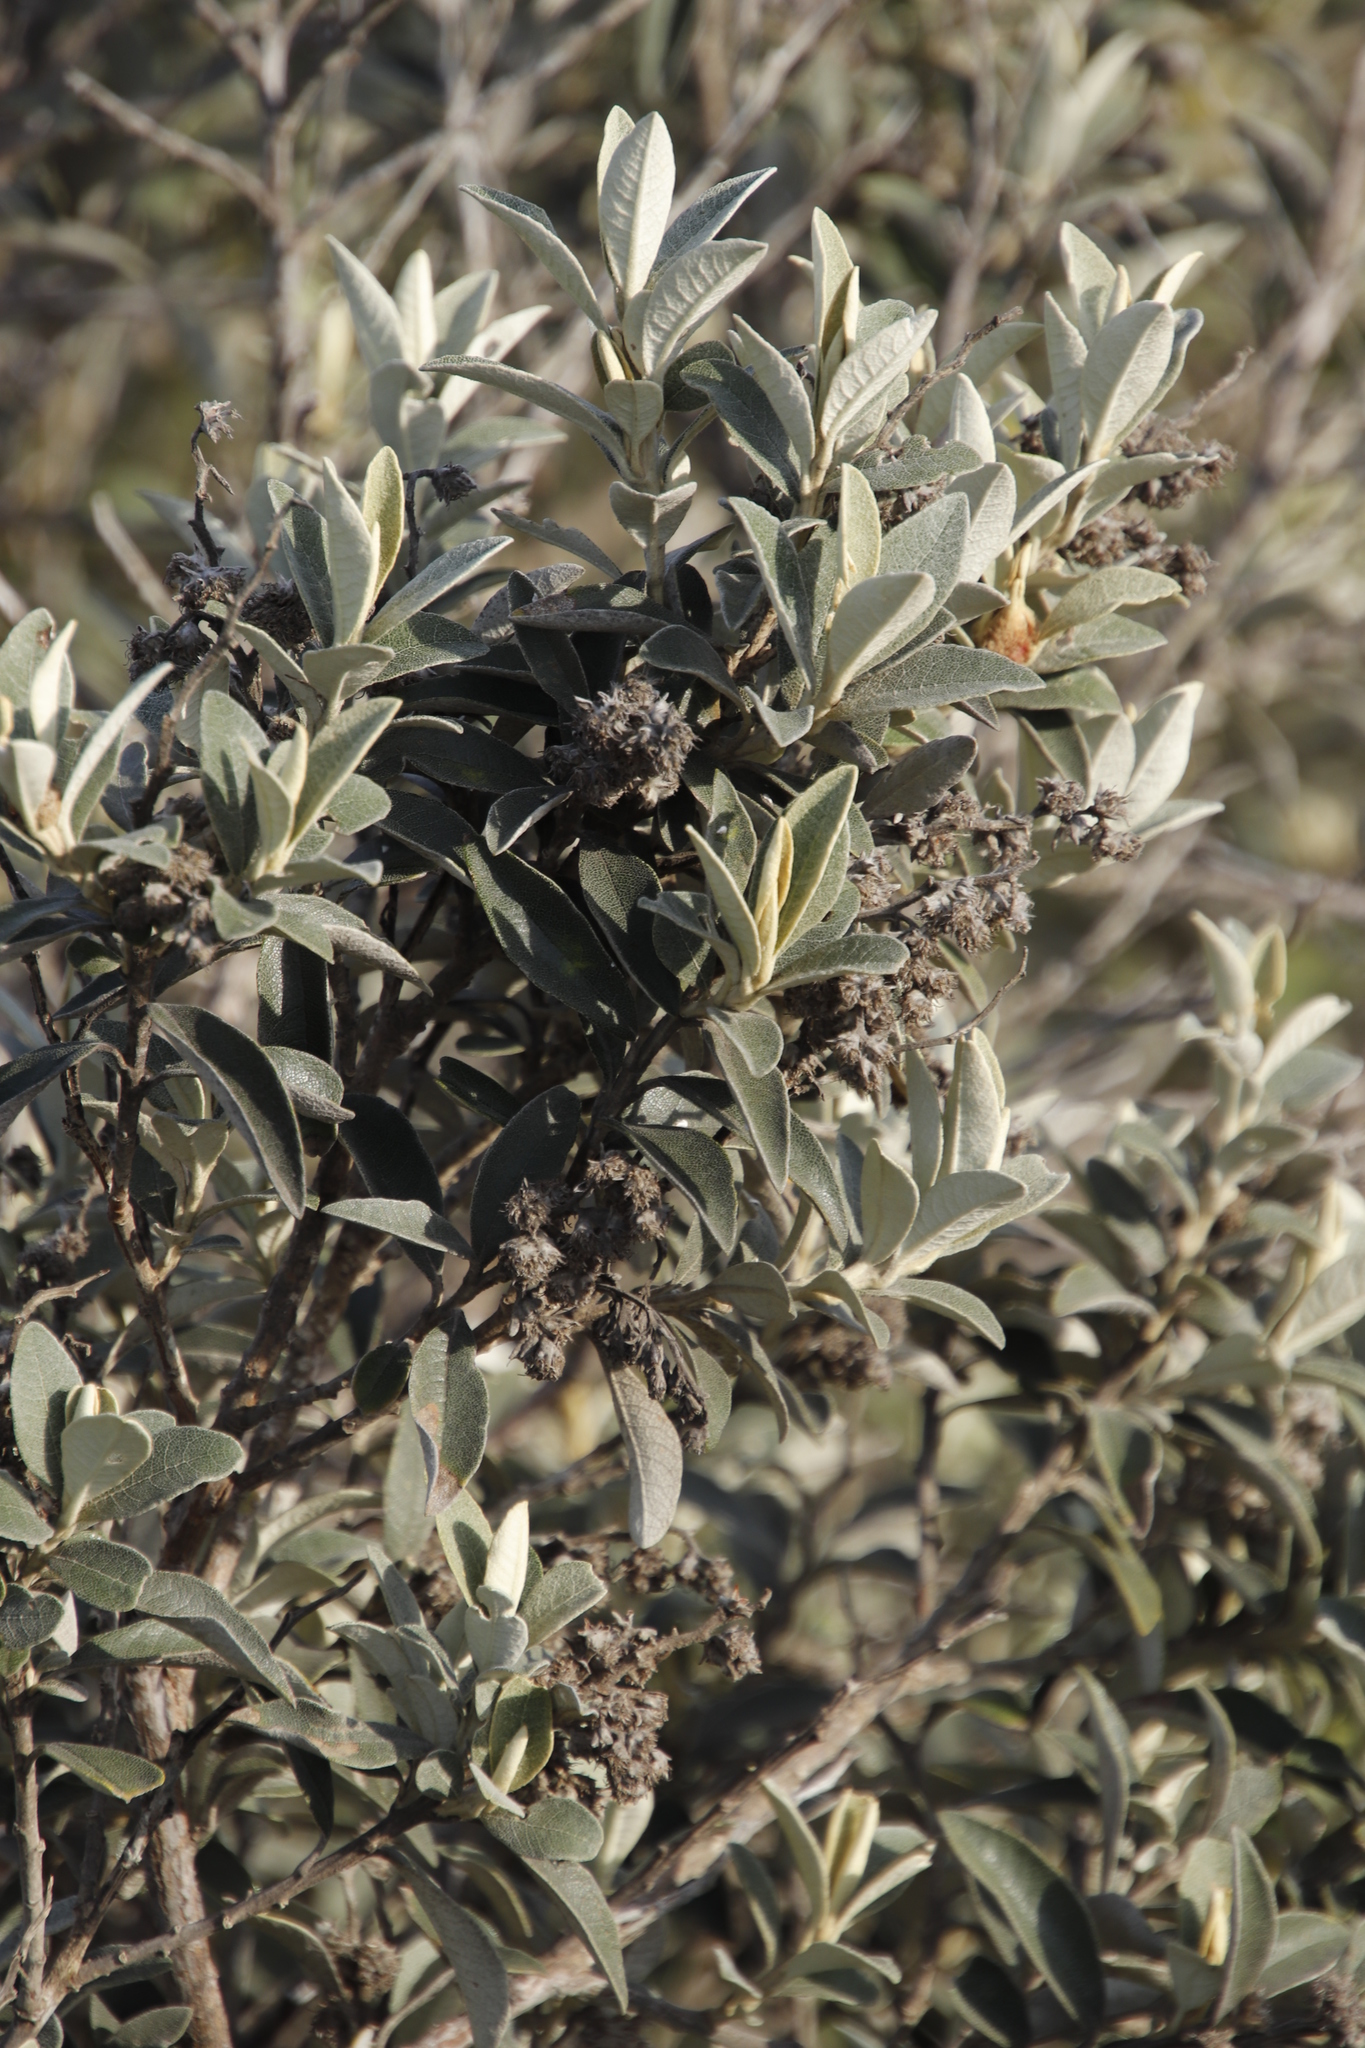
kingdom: Plantae
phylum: Tracheophyta
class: Magnoliopsida
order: Asterales
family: Asteraceae
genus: Tarchonanthus
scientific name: Tarchonanthus littoralis
